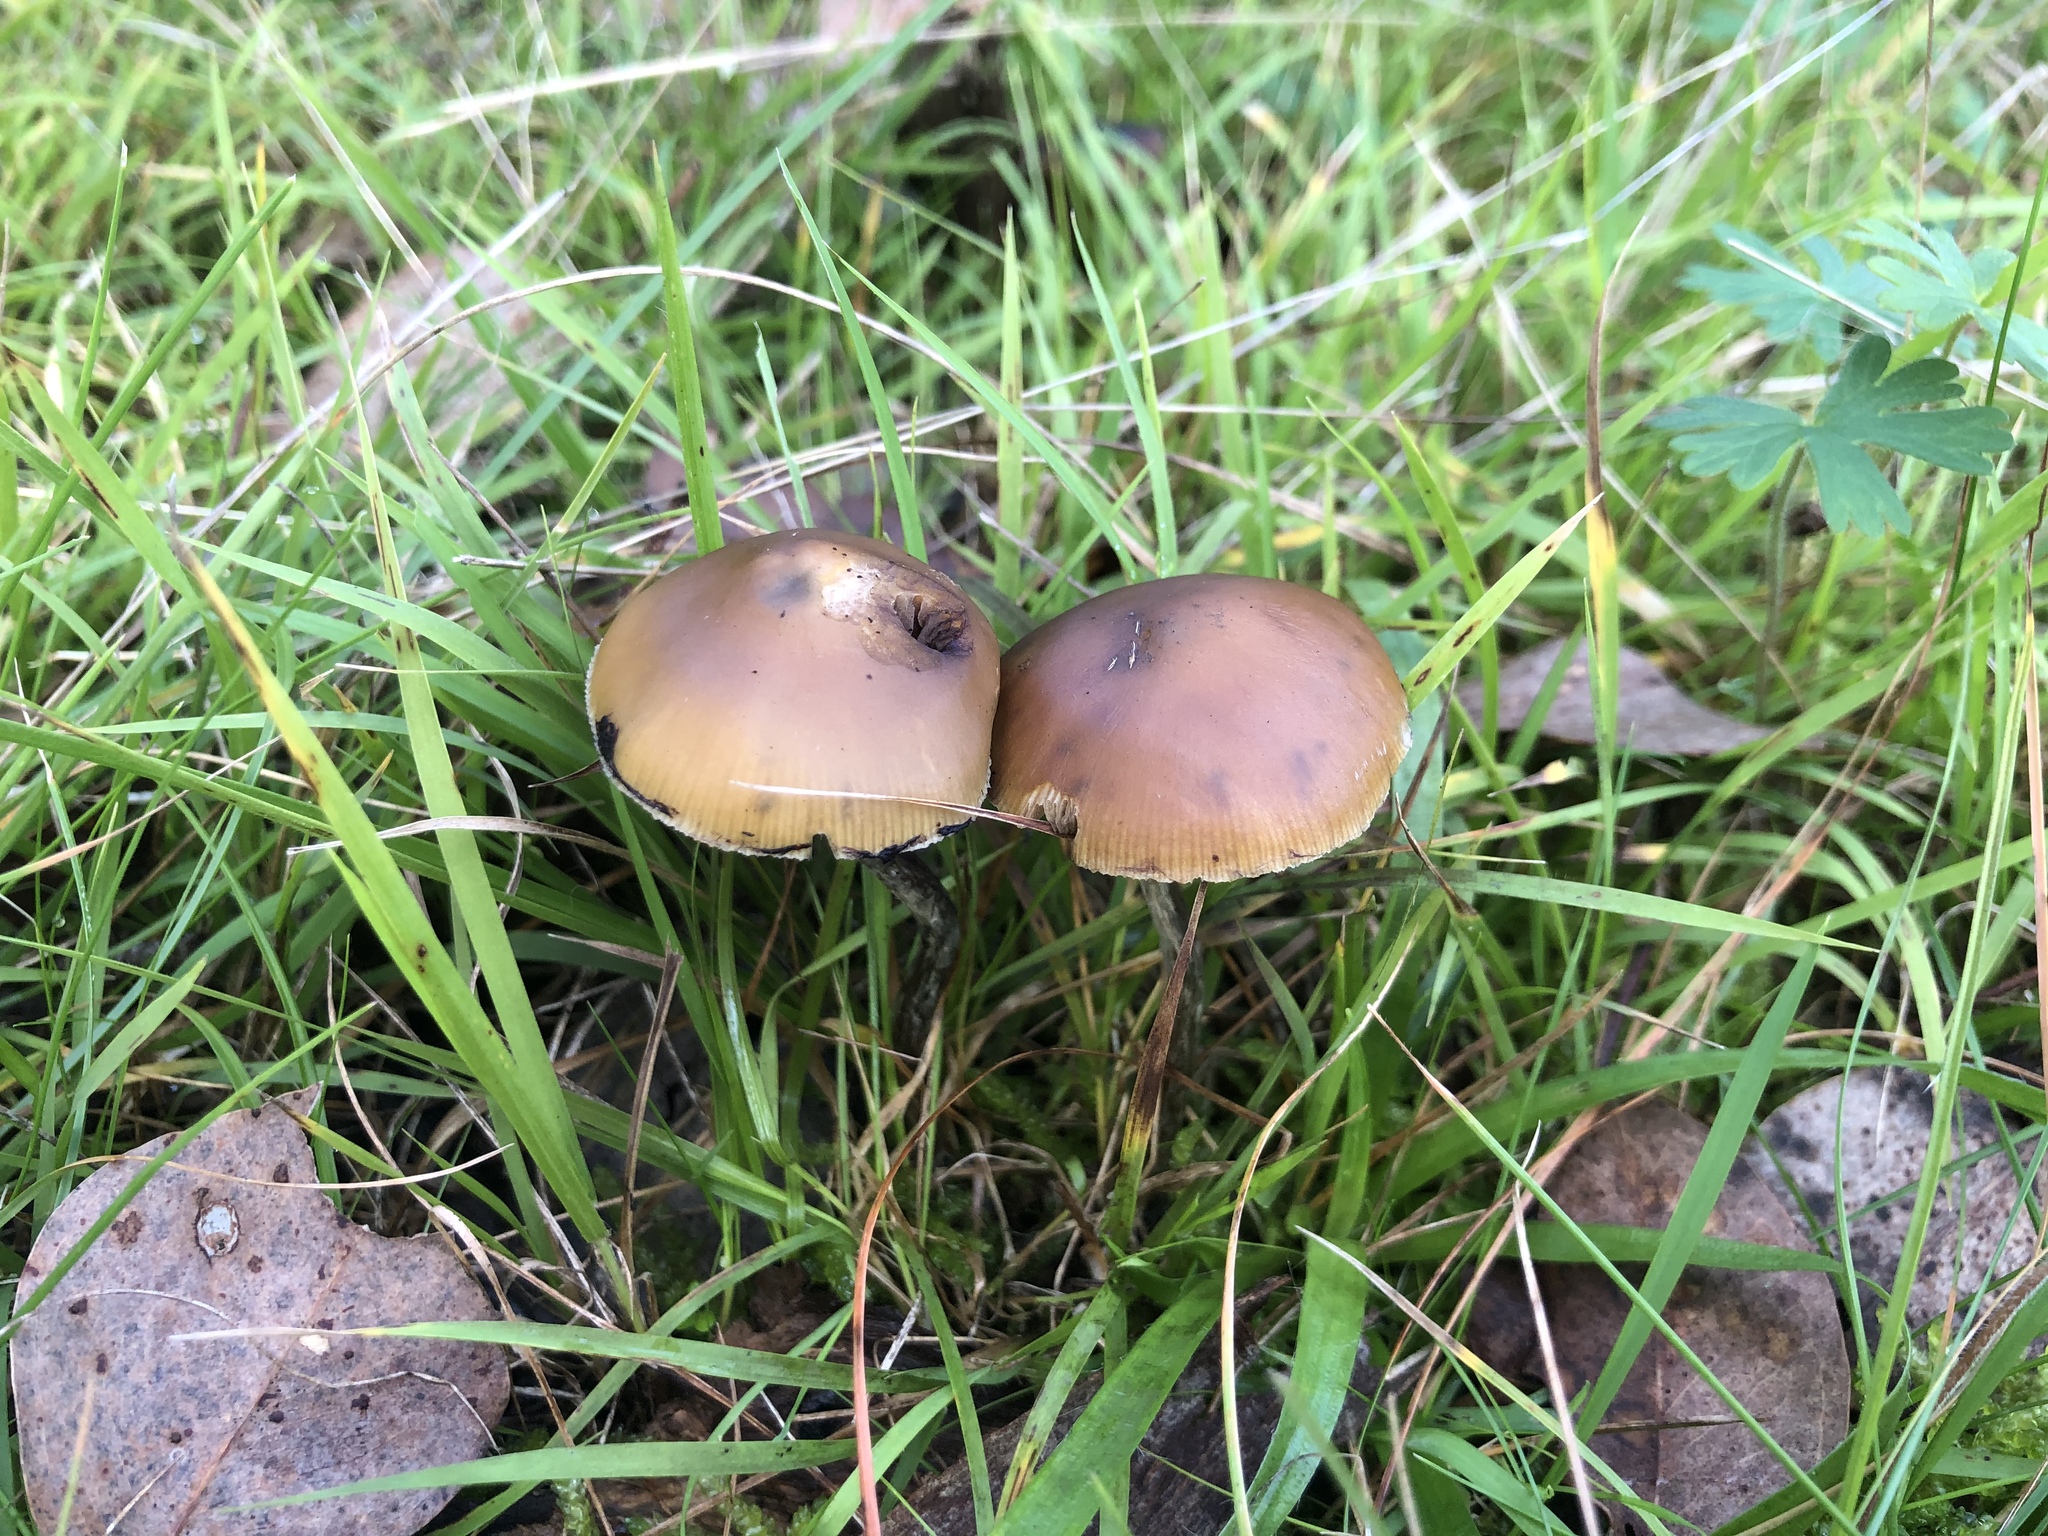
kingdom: Fungi
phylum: Basidiomycota
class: Agaricomycetes
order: Agaricales
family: Hymenogastraceae
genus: Psilocybe
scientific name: Psilocybe subaeruginosa
